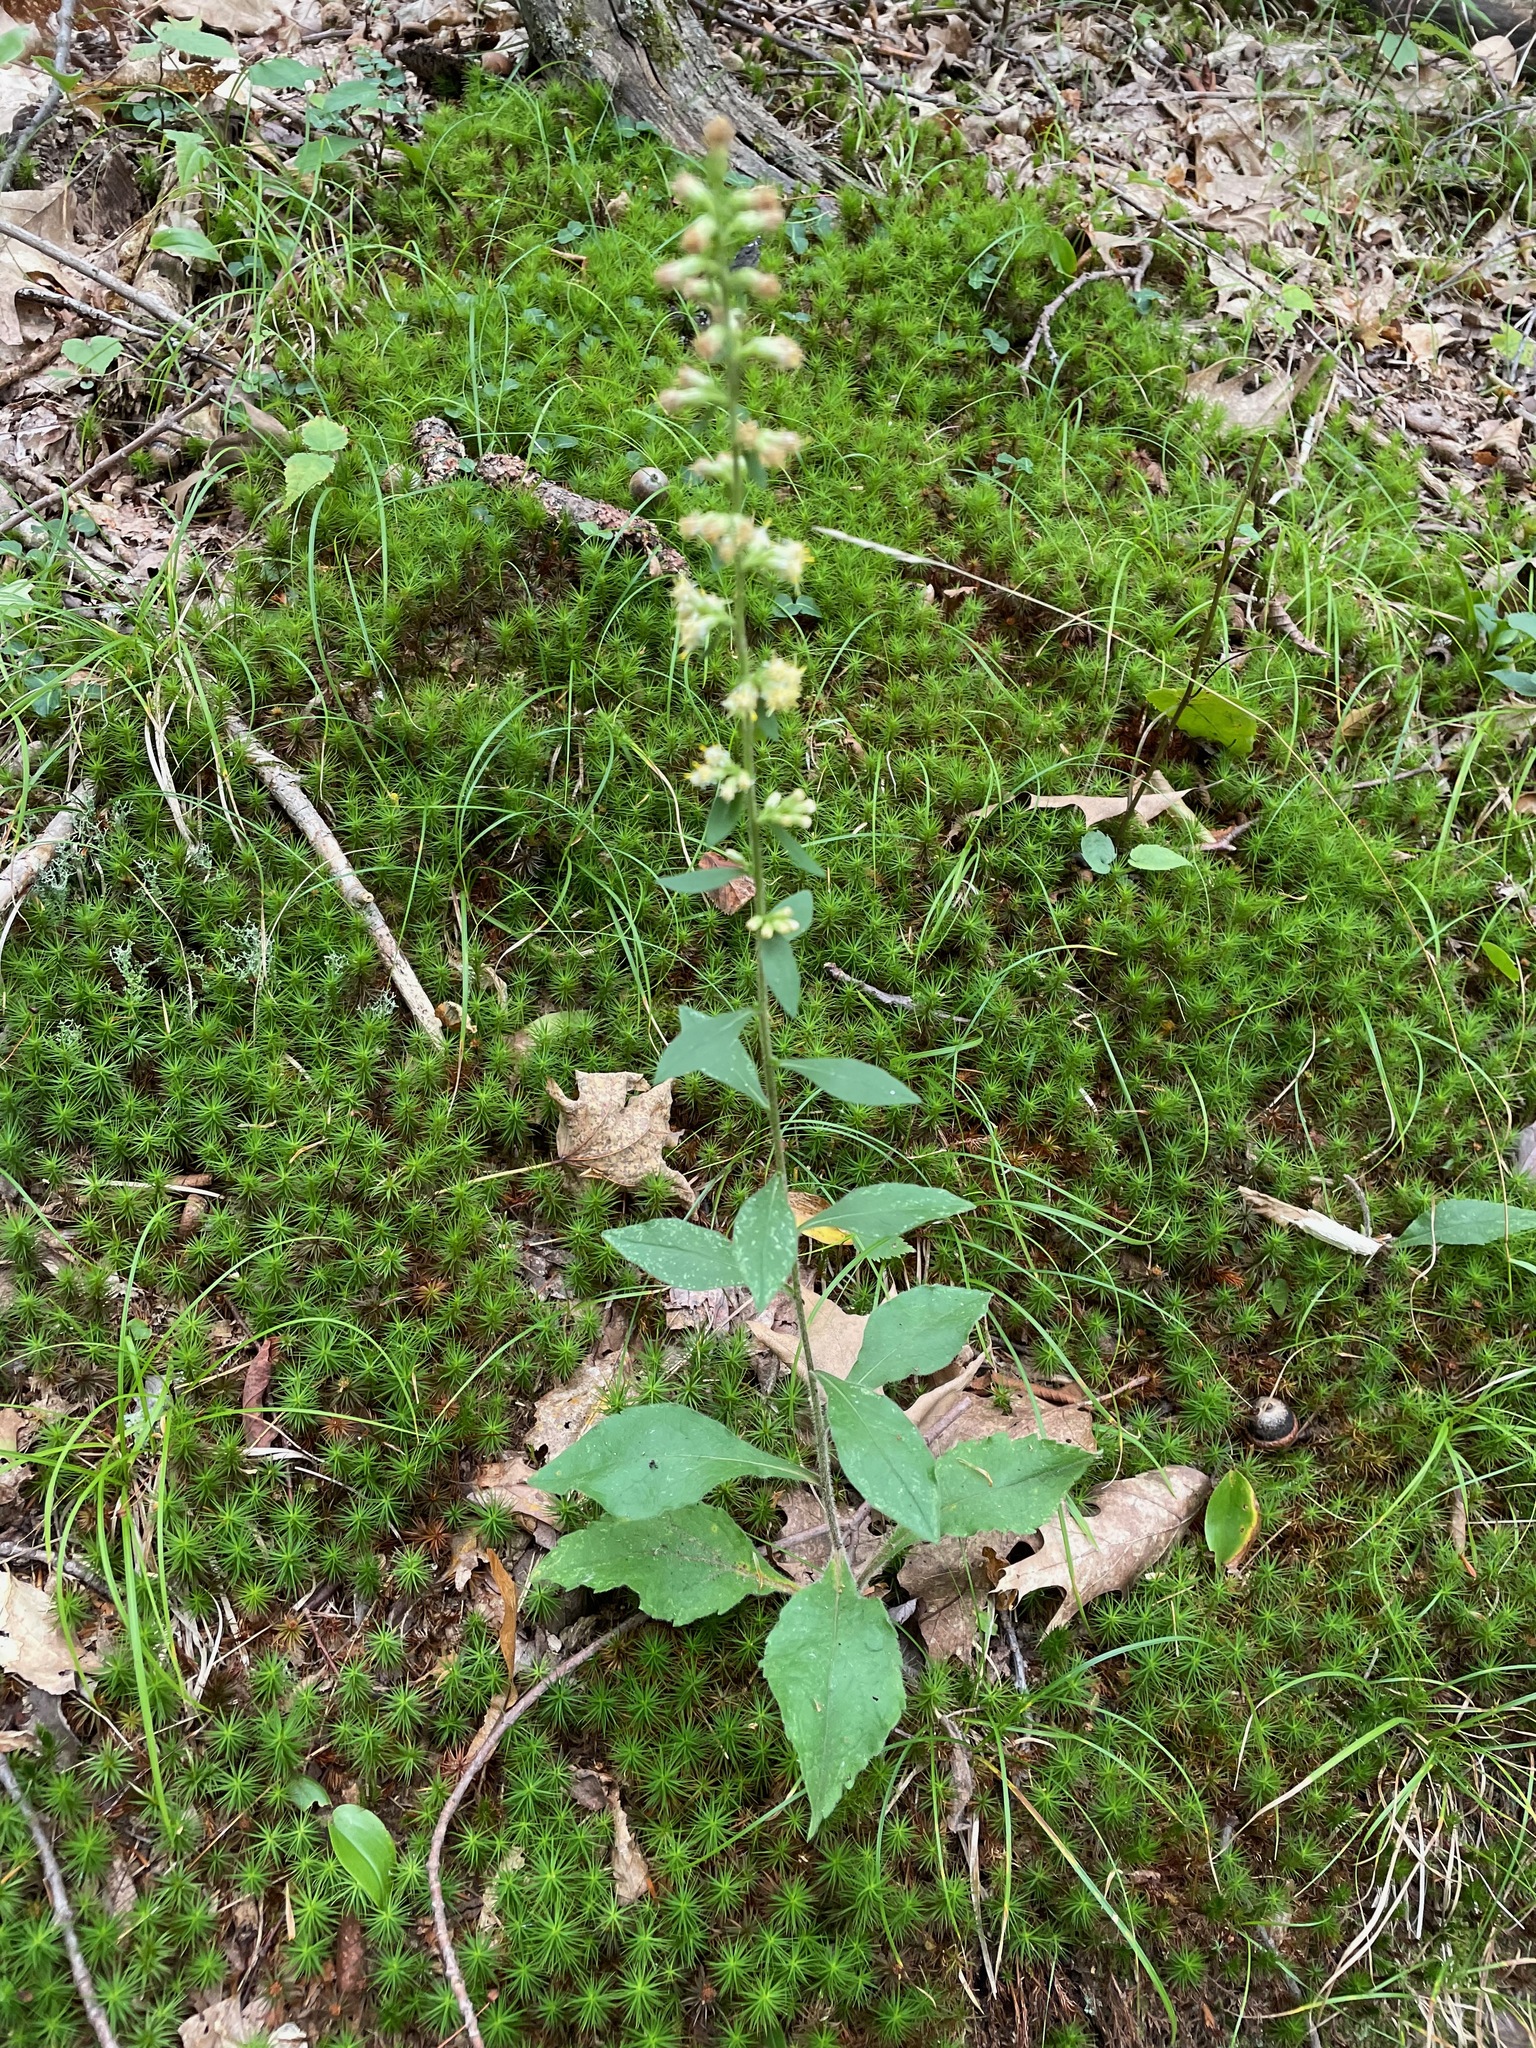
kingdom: Plantae
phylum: Tracheophyta
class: Magnoliopsida
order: Asterales
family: Asteraceae
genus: Solidago
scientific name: Solidago bicolor
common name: Silverrod
